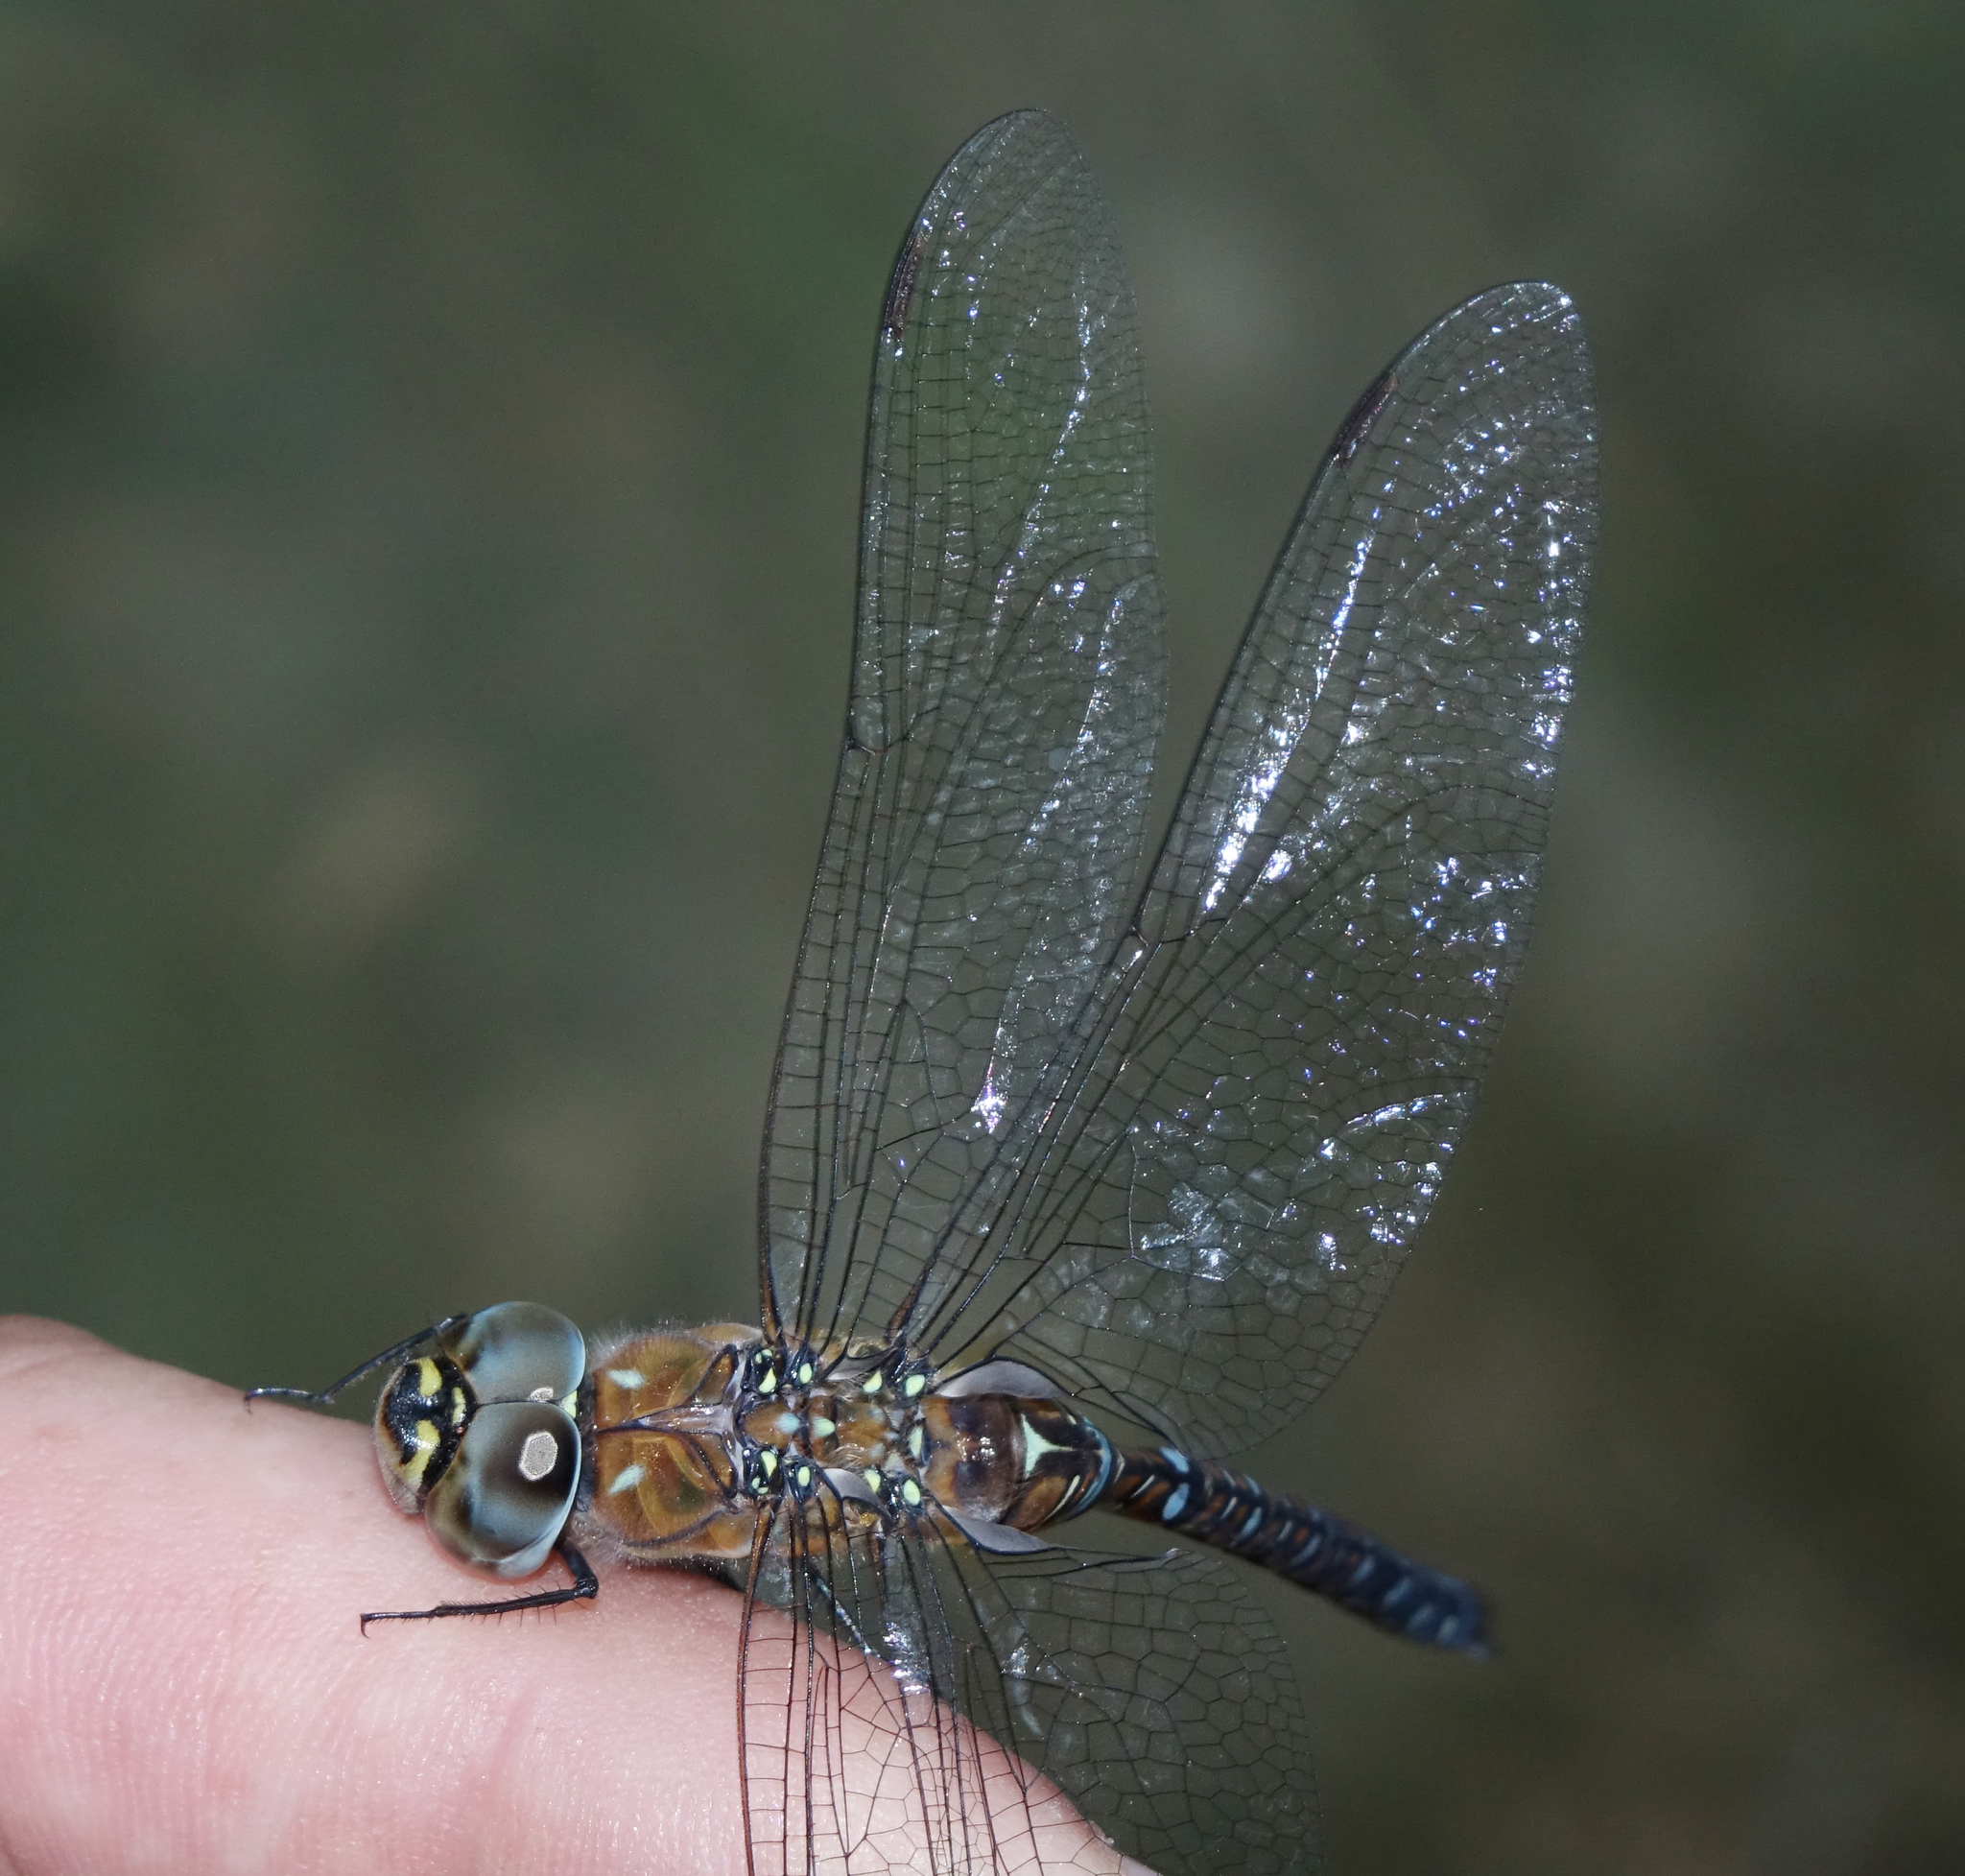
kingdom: Animalia
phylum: Arthropoda
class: Insecta
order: Odonata
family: Aeshnidae
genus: Aeshna
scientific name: Aeshna mixta
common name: Migrant hawker
